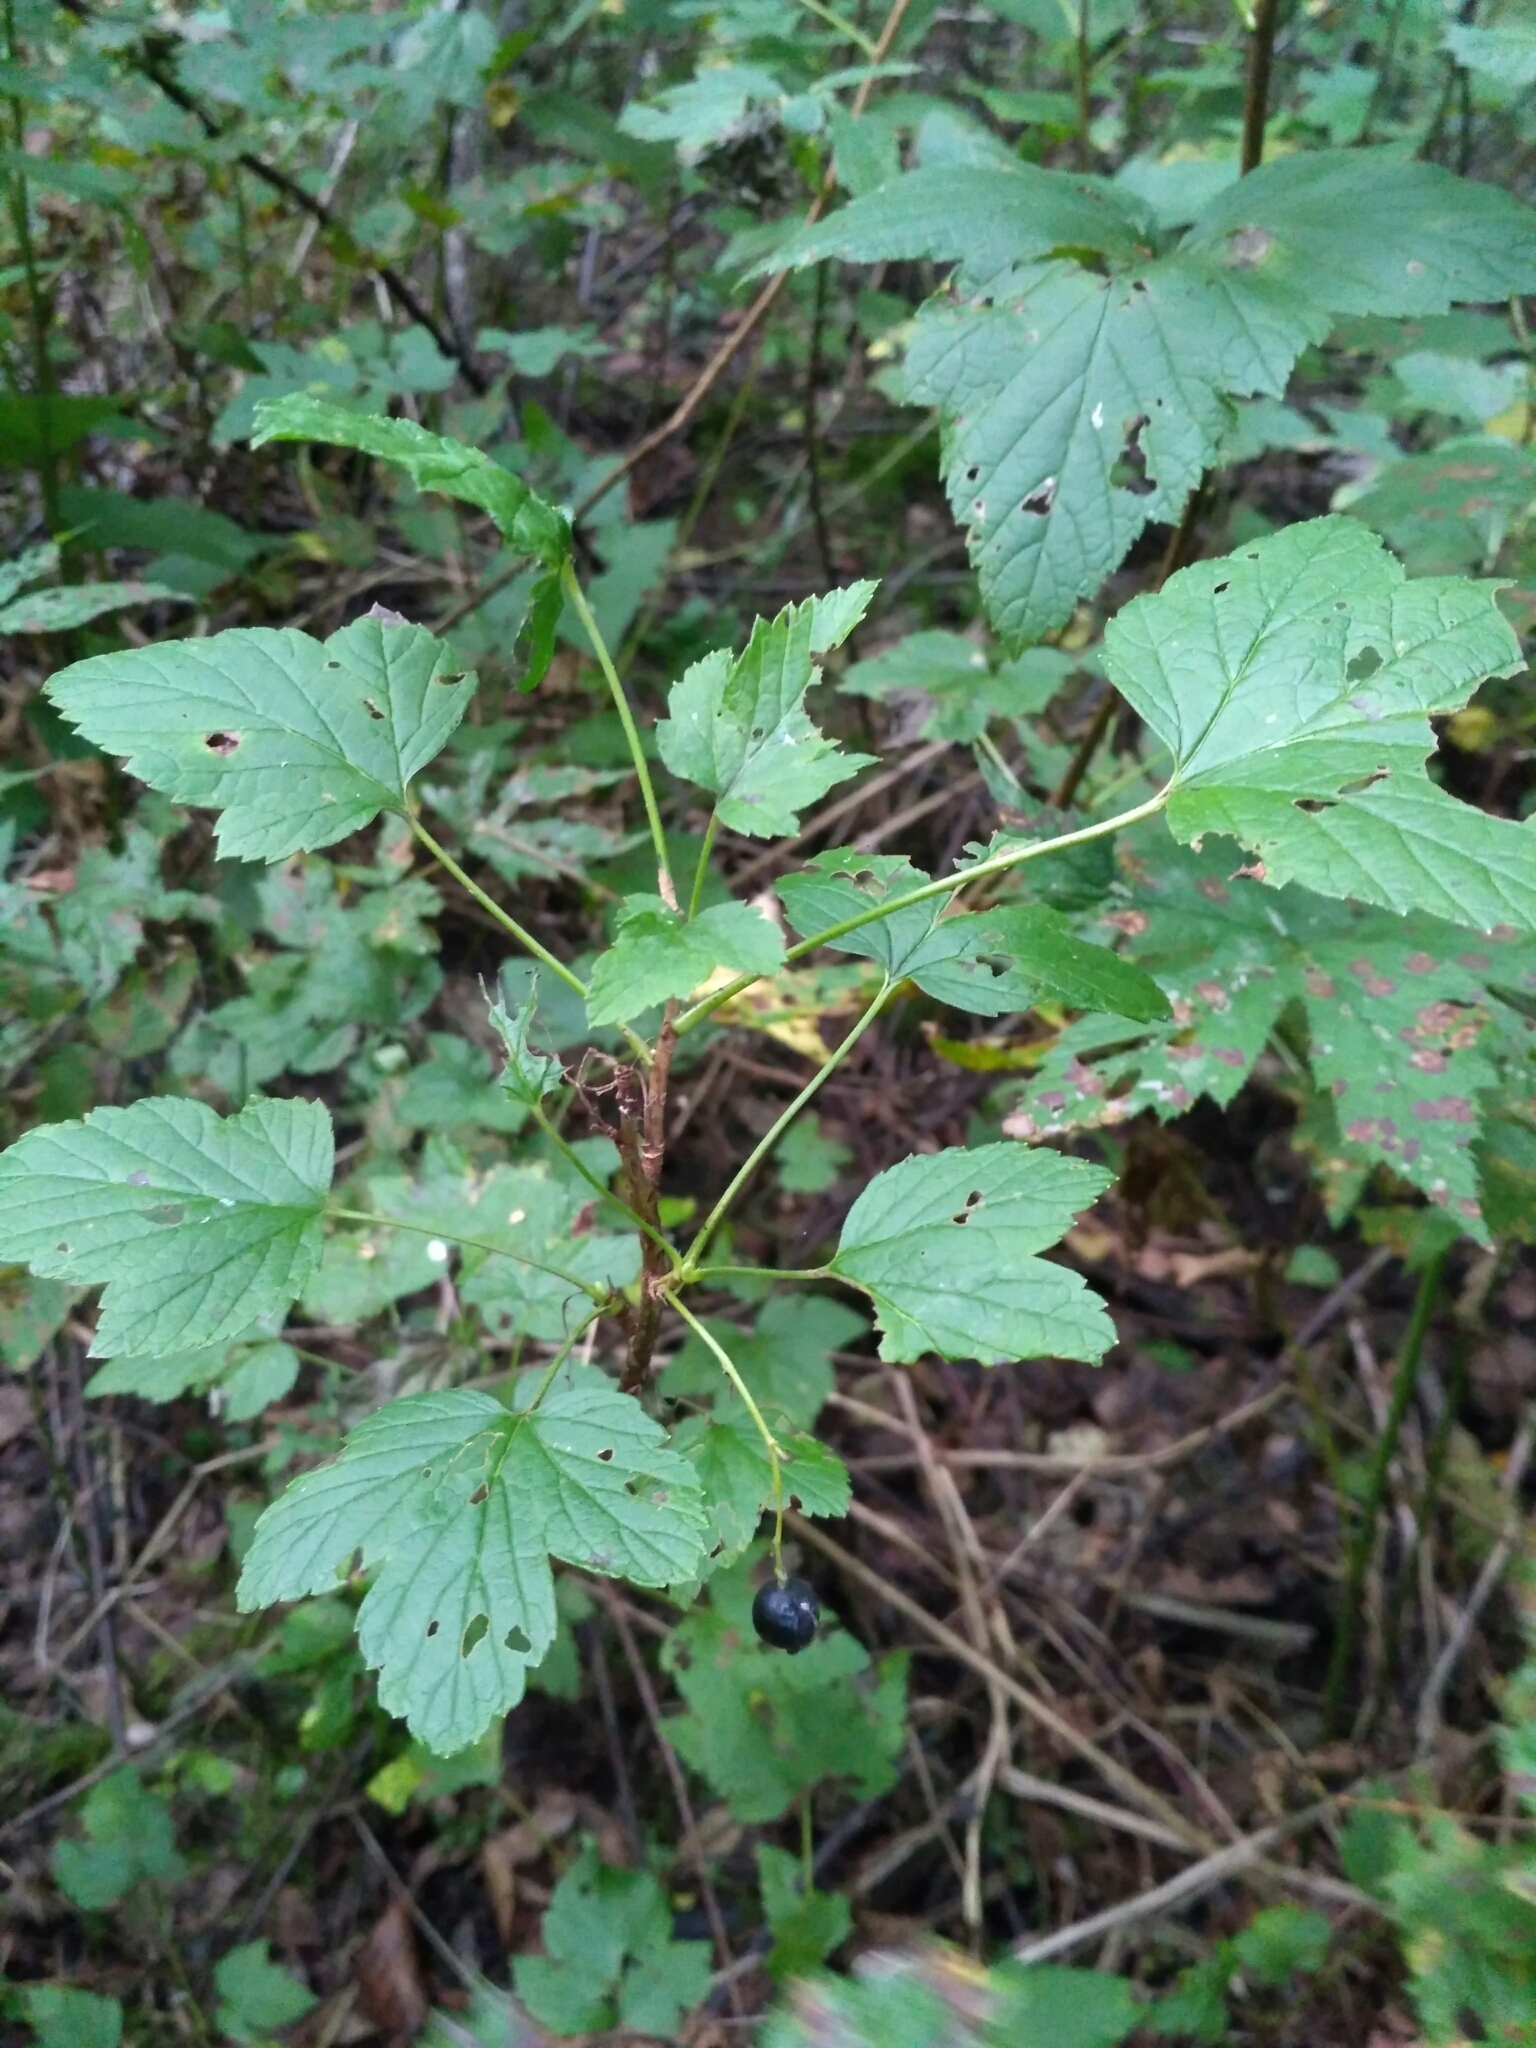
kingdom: Plantae
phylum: Tracheophyta
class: Magnoliopsida
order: Saxifragales
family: Grossulariaceae
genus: Ribes
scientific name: Ribes nigrum
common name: Black currant
